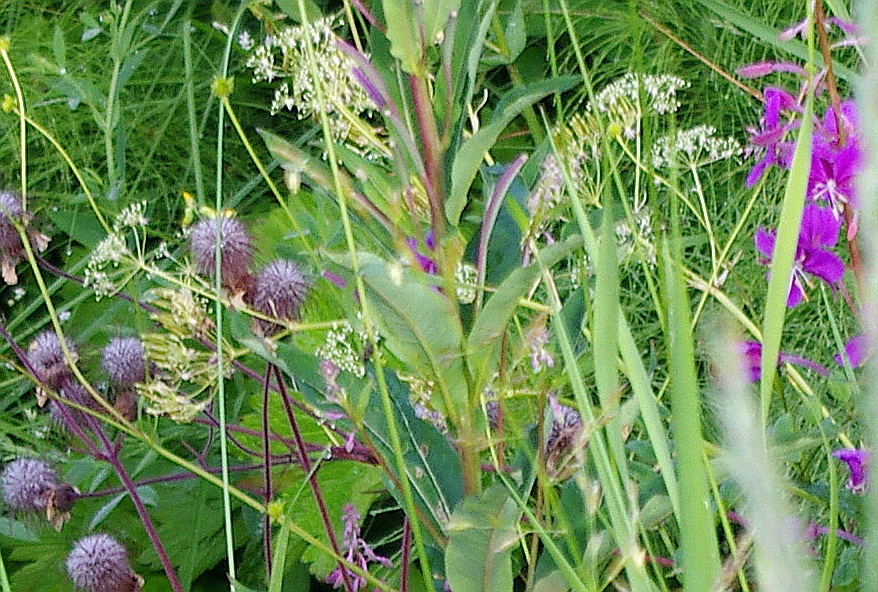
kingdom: Plantae
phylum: Tracheophyta
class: Magnoliopsida
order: Apiales
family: Apiaceae
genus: Anthriscus
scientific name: Anthriscus sylvestris
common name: Cow parsley
